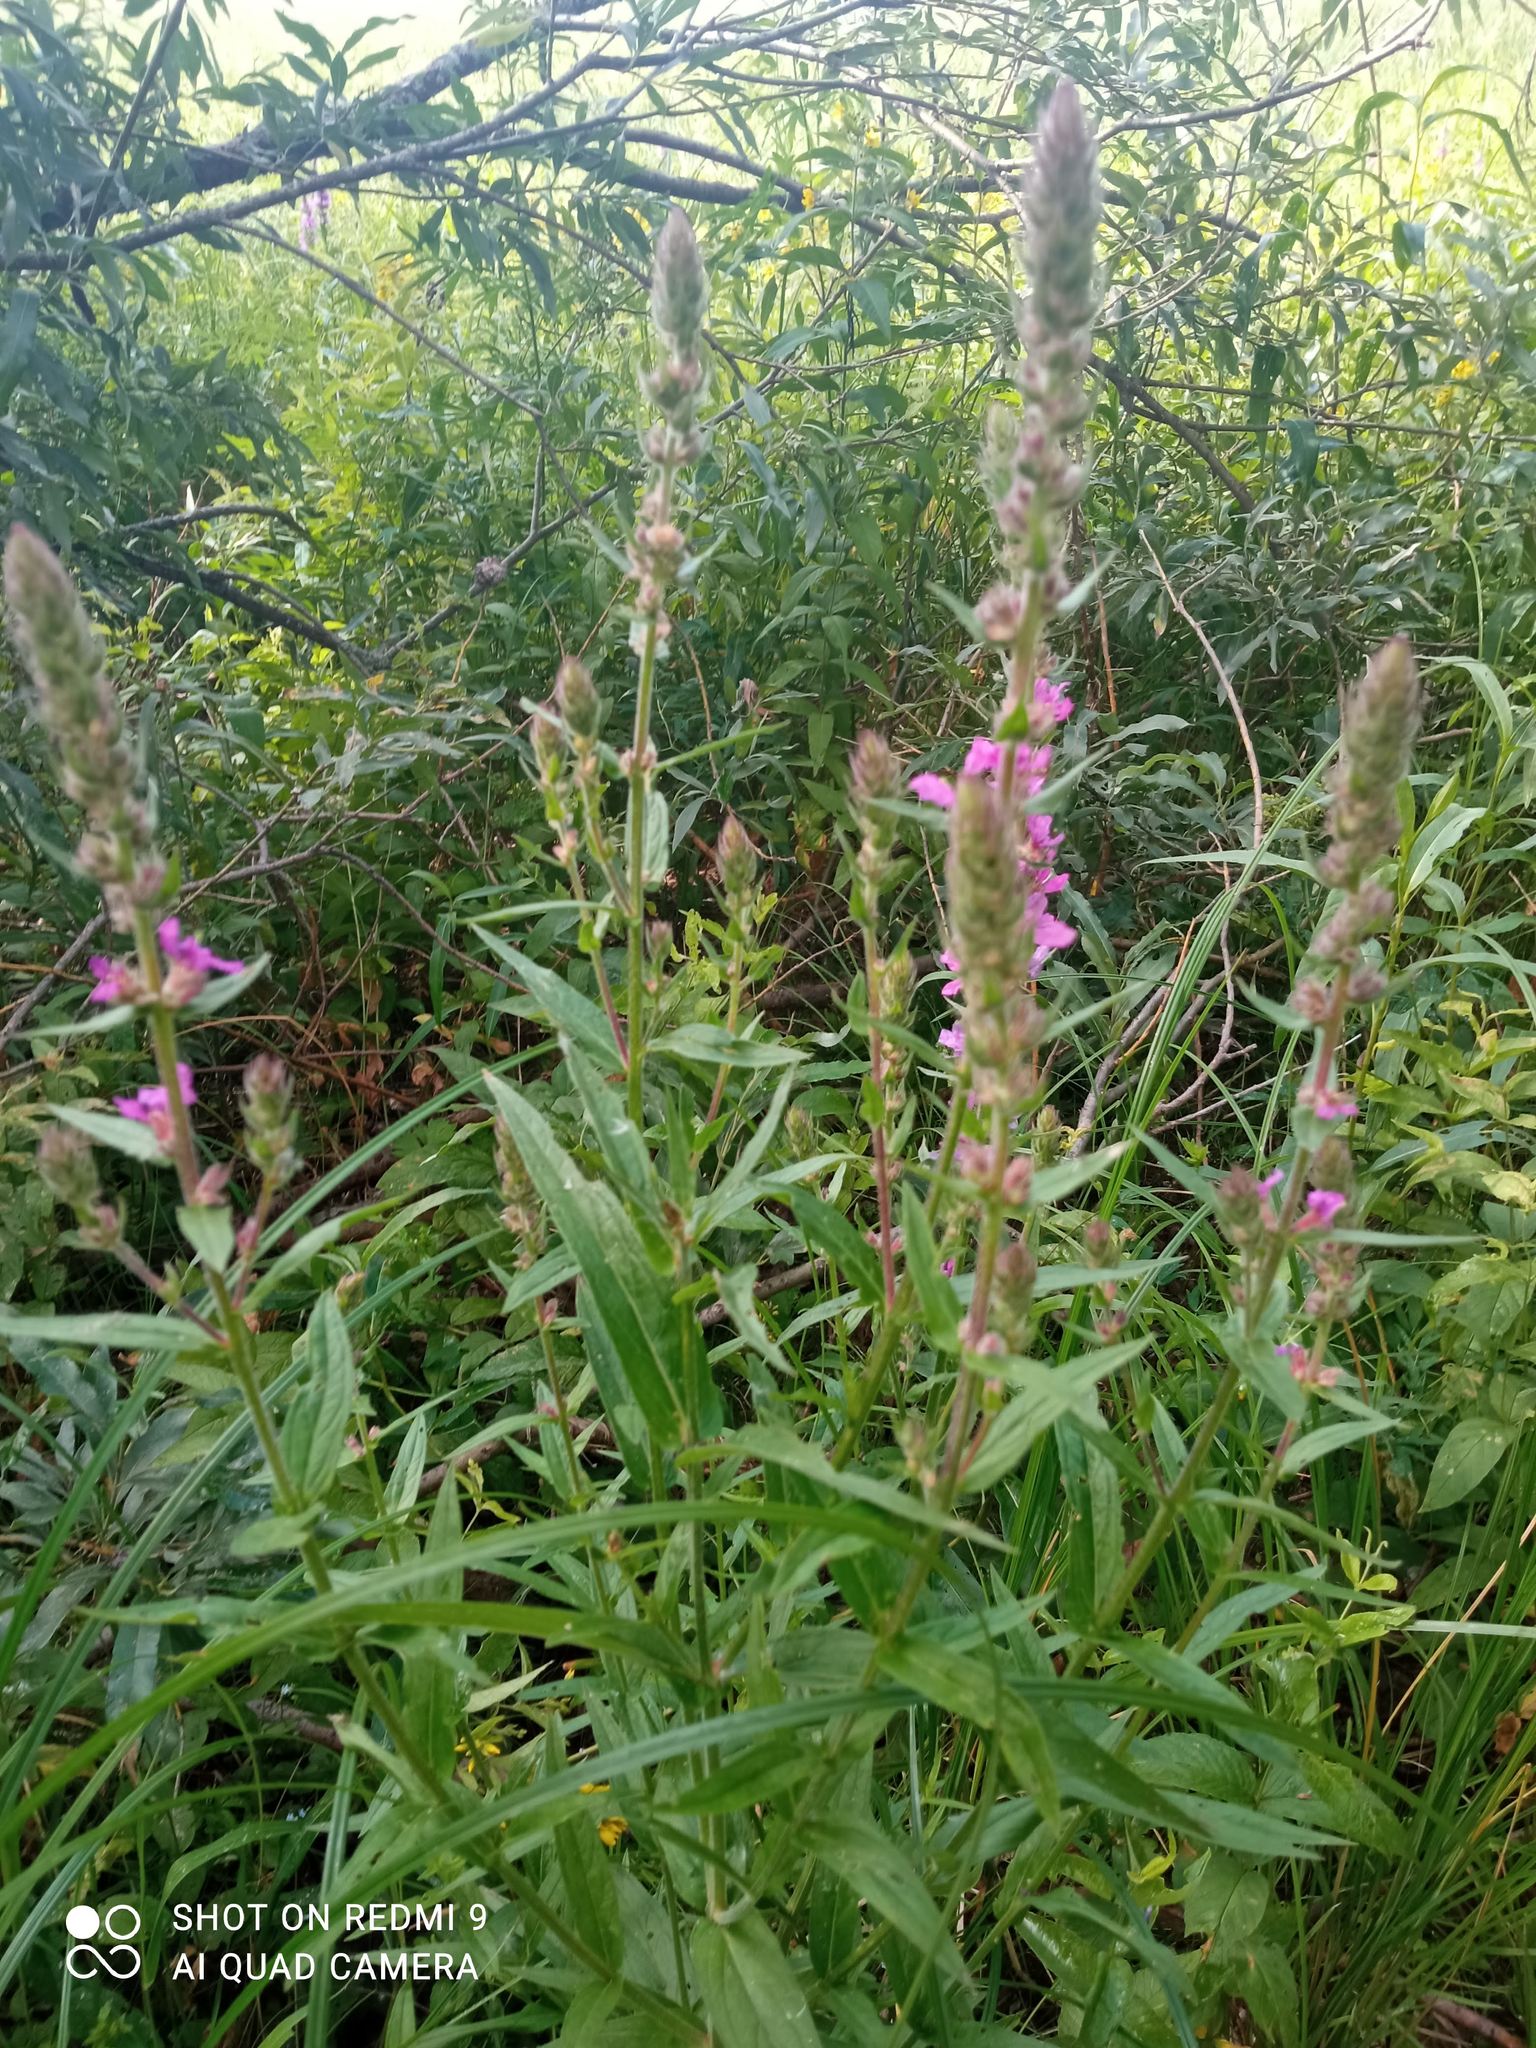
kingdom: Plantae
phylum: Tracheophyta
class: Magnoliopsida
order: Myrtales
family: Lythraceae
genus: Lythrum
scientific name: Lythrum salicaria
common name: Purple loosestrife
